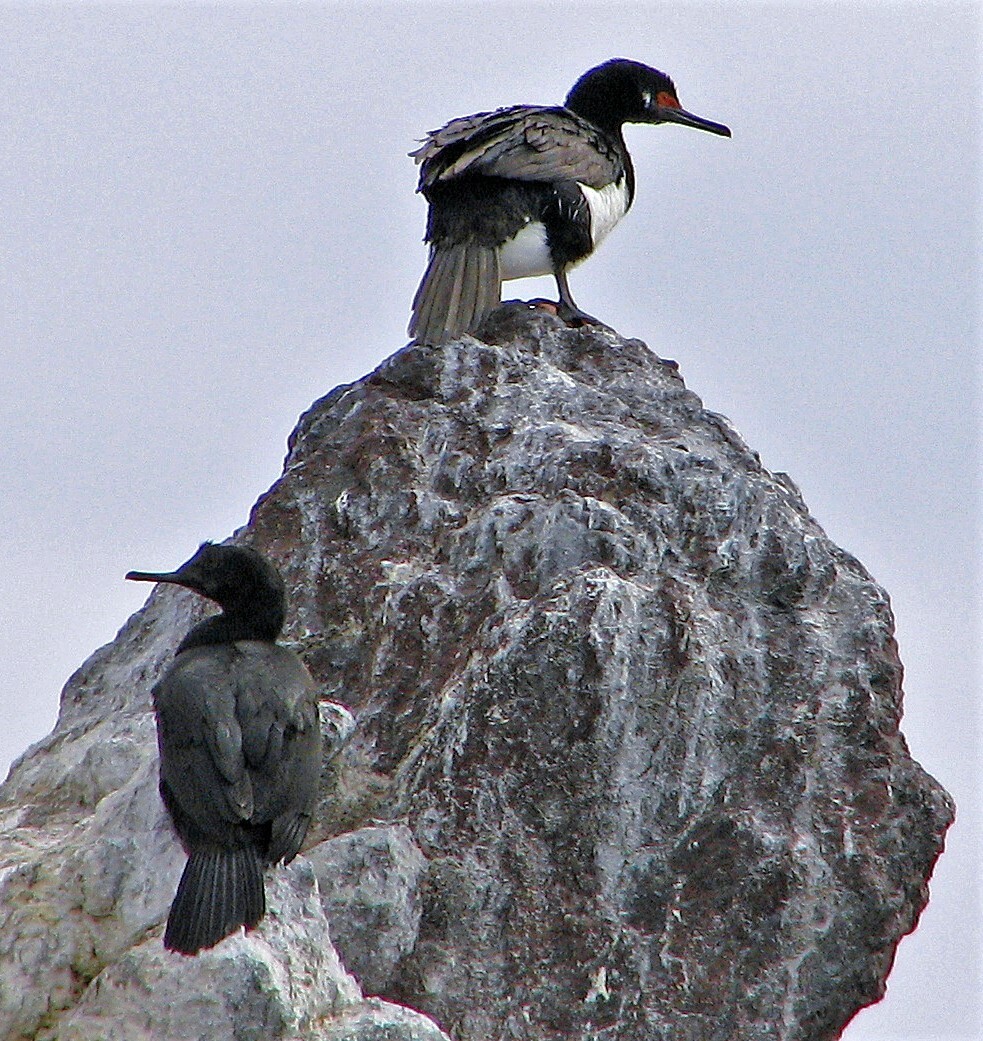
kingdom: Animalia
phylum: Chordata
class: Aves
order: Suliformes
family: Phalacrocoracidae
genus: Phalacrocorax
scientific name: Phalacrocorax magellanicus
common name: Rock shag
